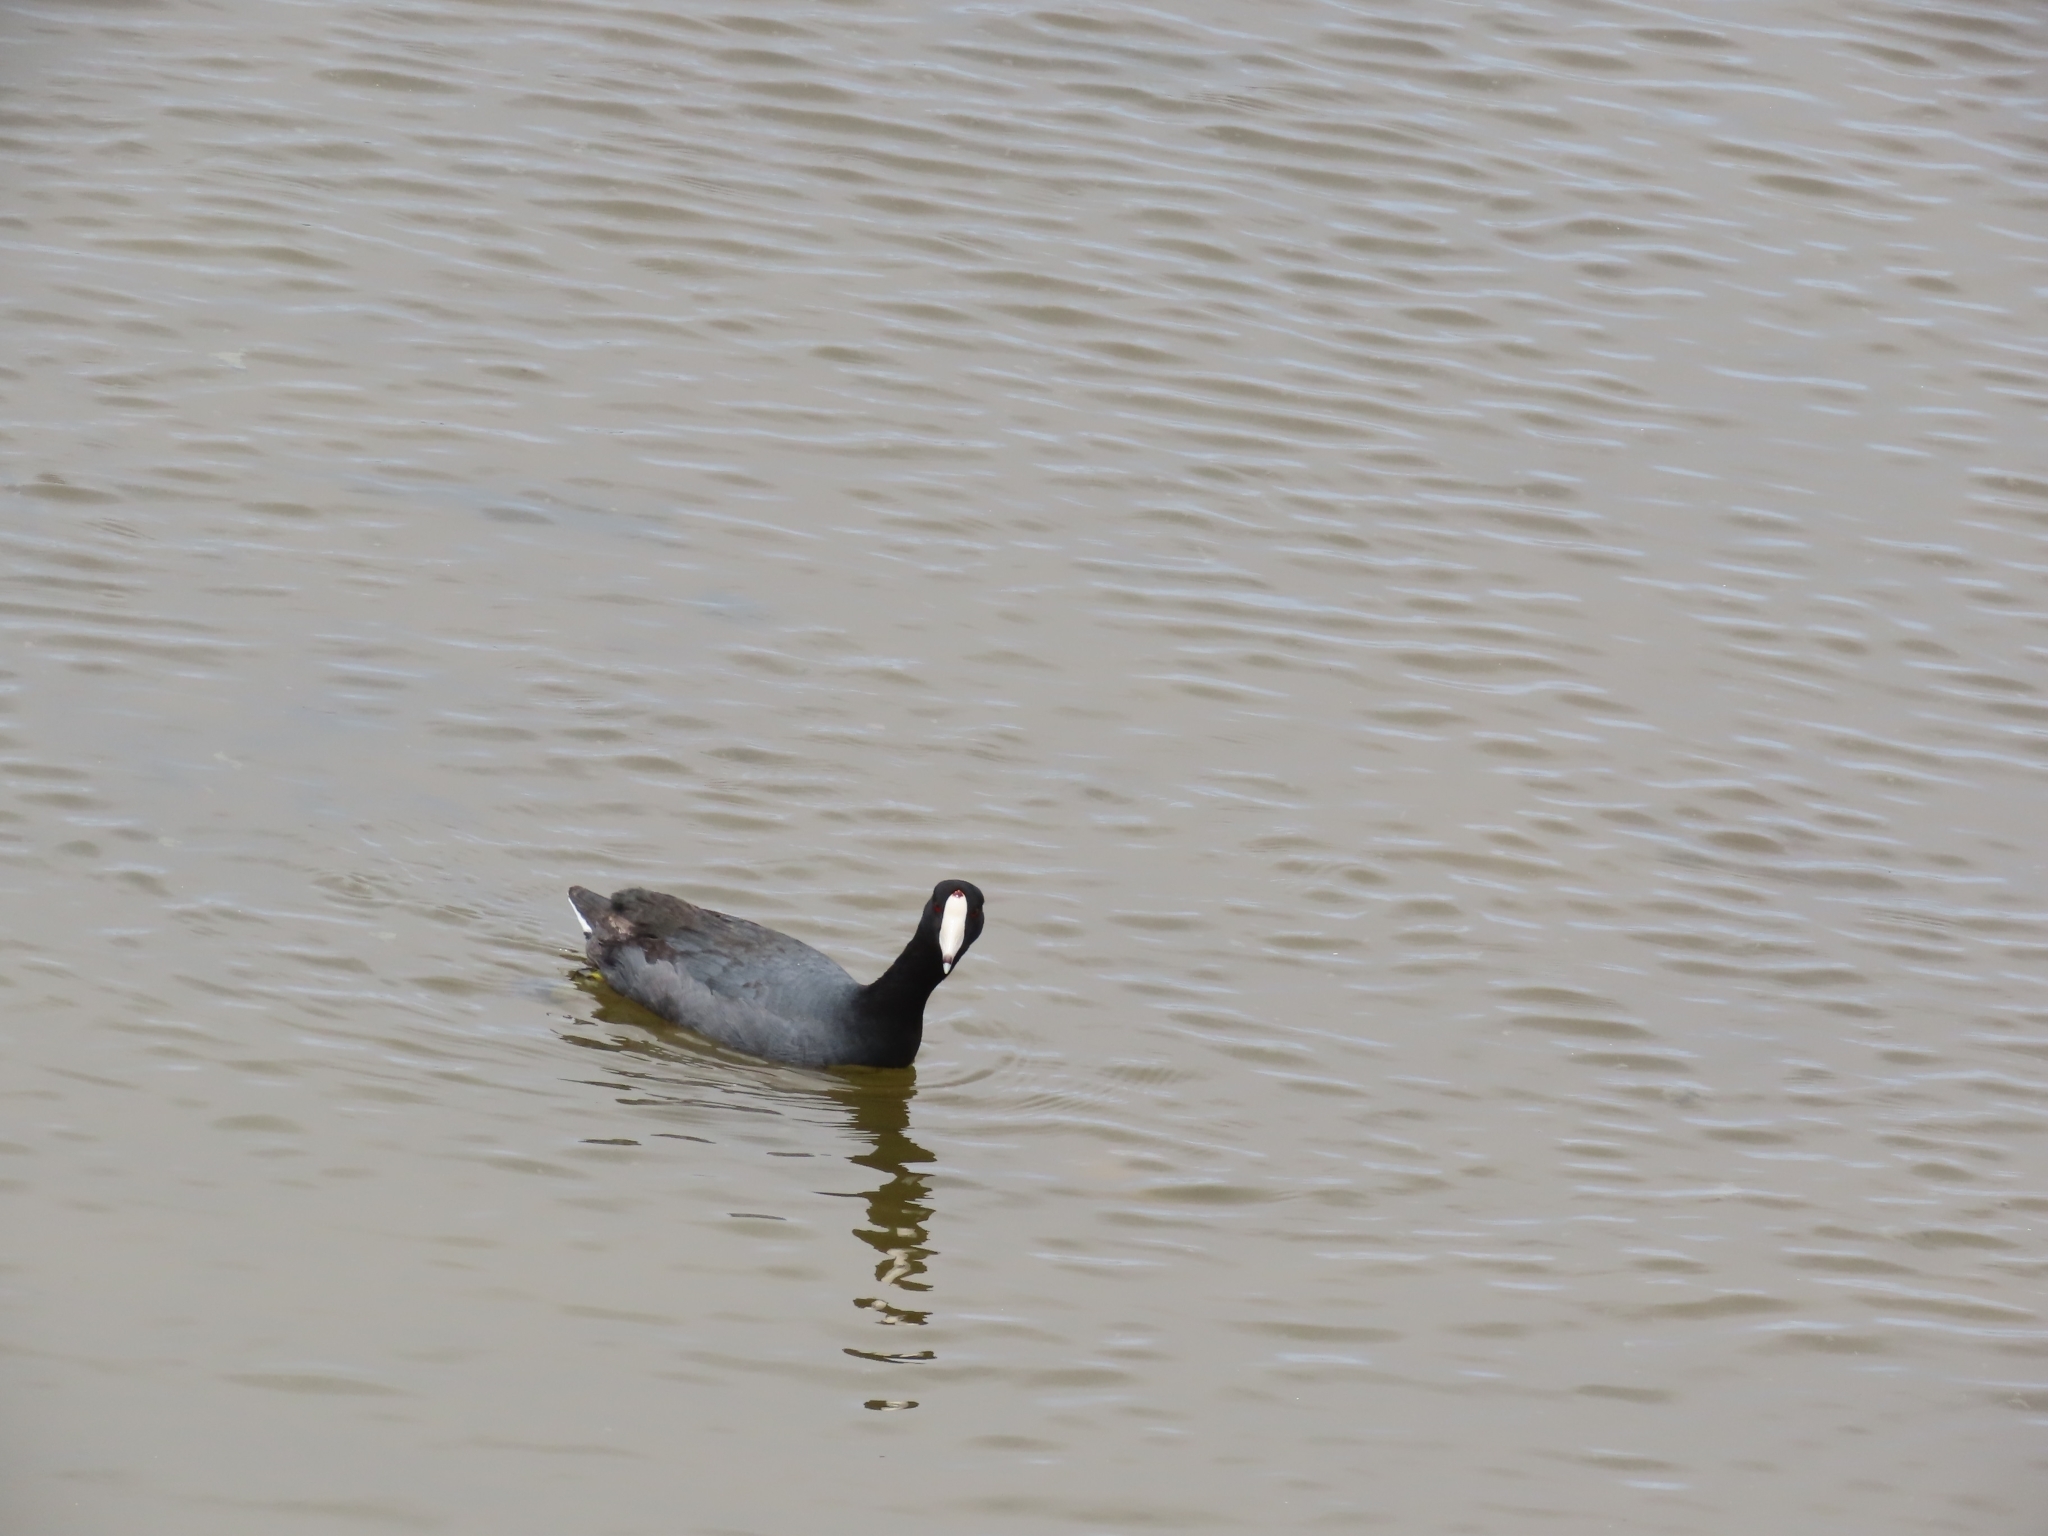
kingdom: Animalia
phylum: Chordata
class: Aves
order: Gruiformes
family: Rallidae
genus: Fulica
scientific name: Fulica americana
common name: American coot
